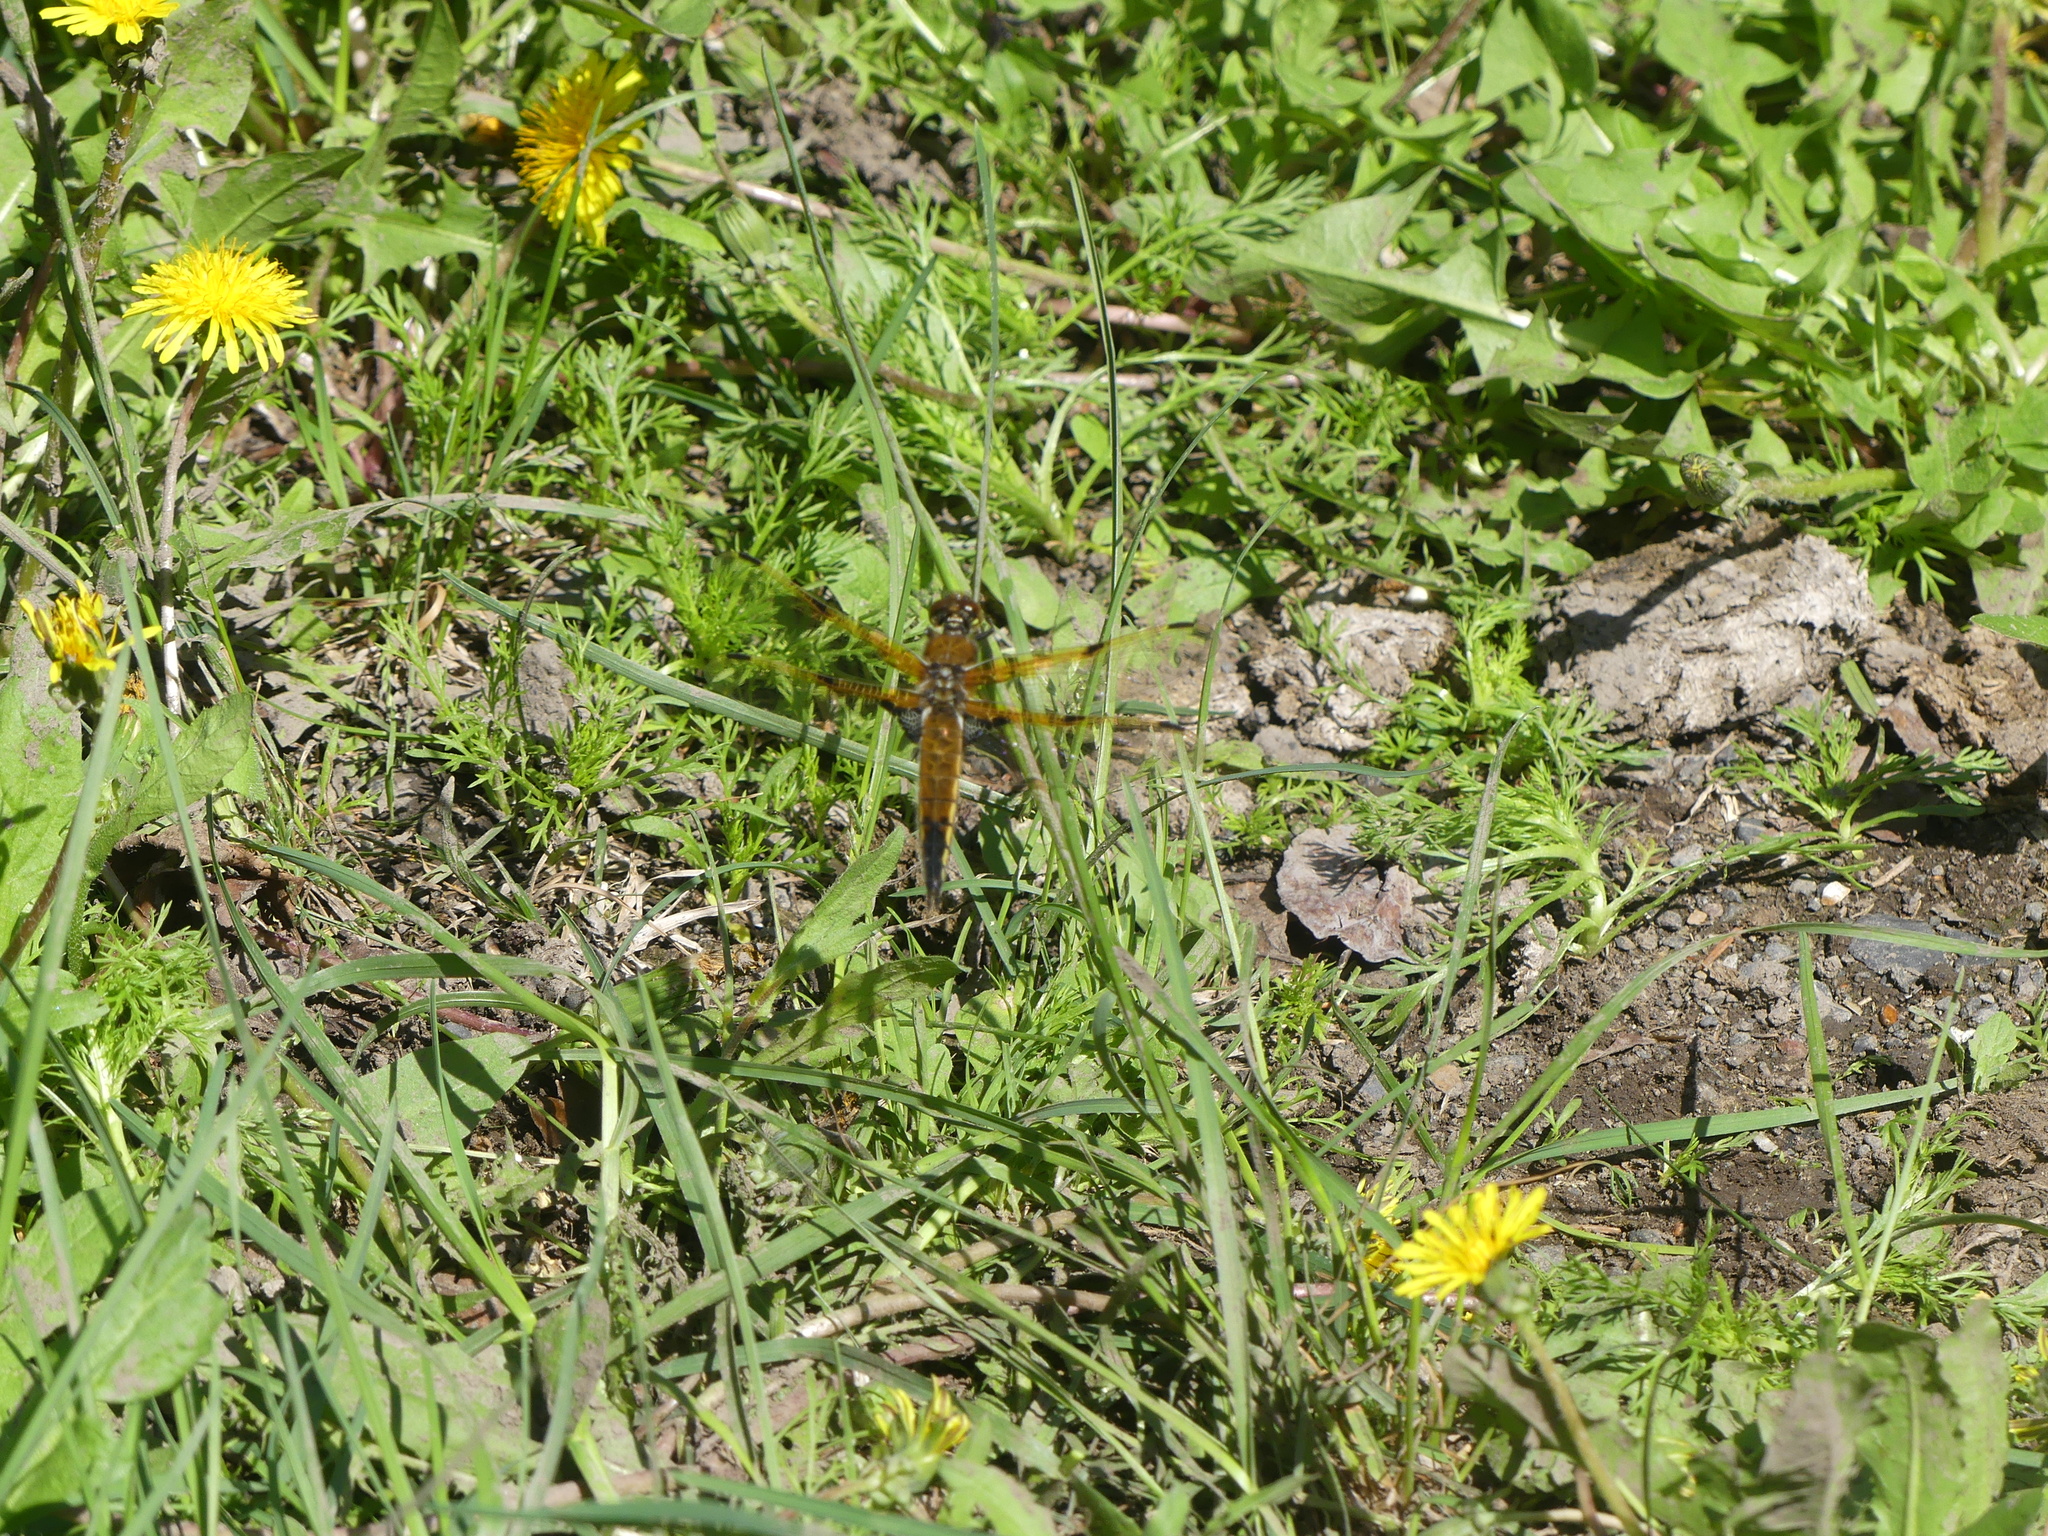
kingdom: Animalia
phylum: Arthropoda
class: Insecta
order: Odonata
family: Libellulidae
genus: Libellula
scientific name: Libellula quadrimaculata
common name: Four-spotted chaser
